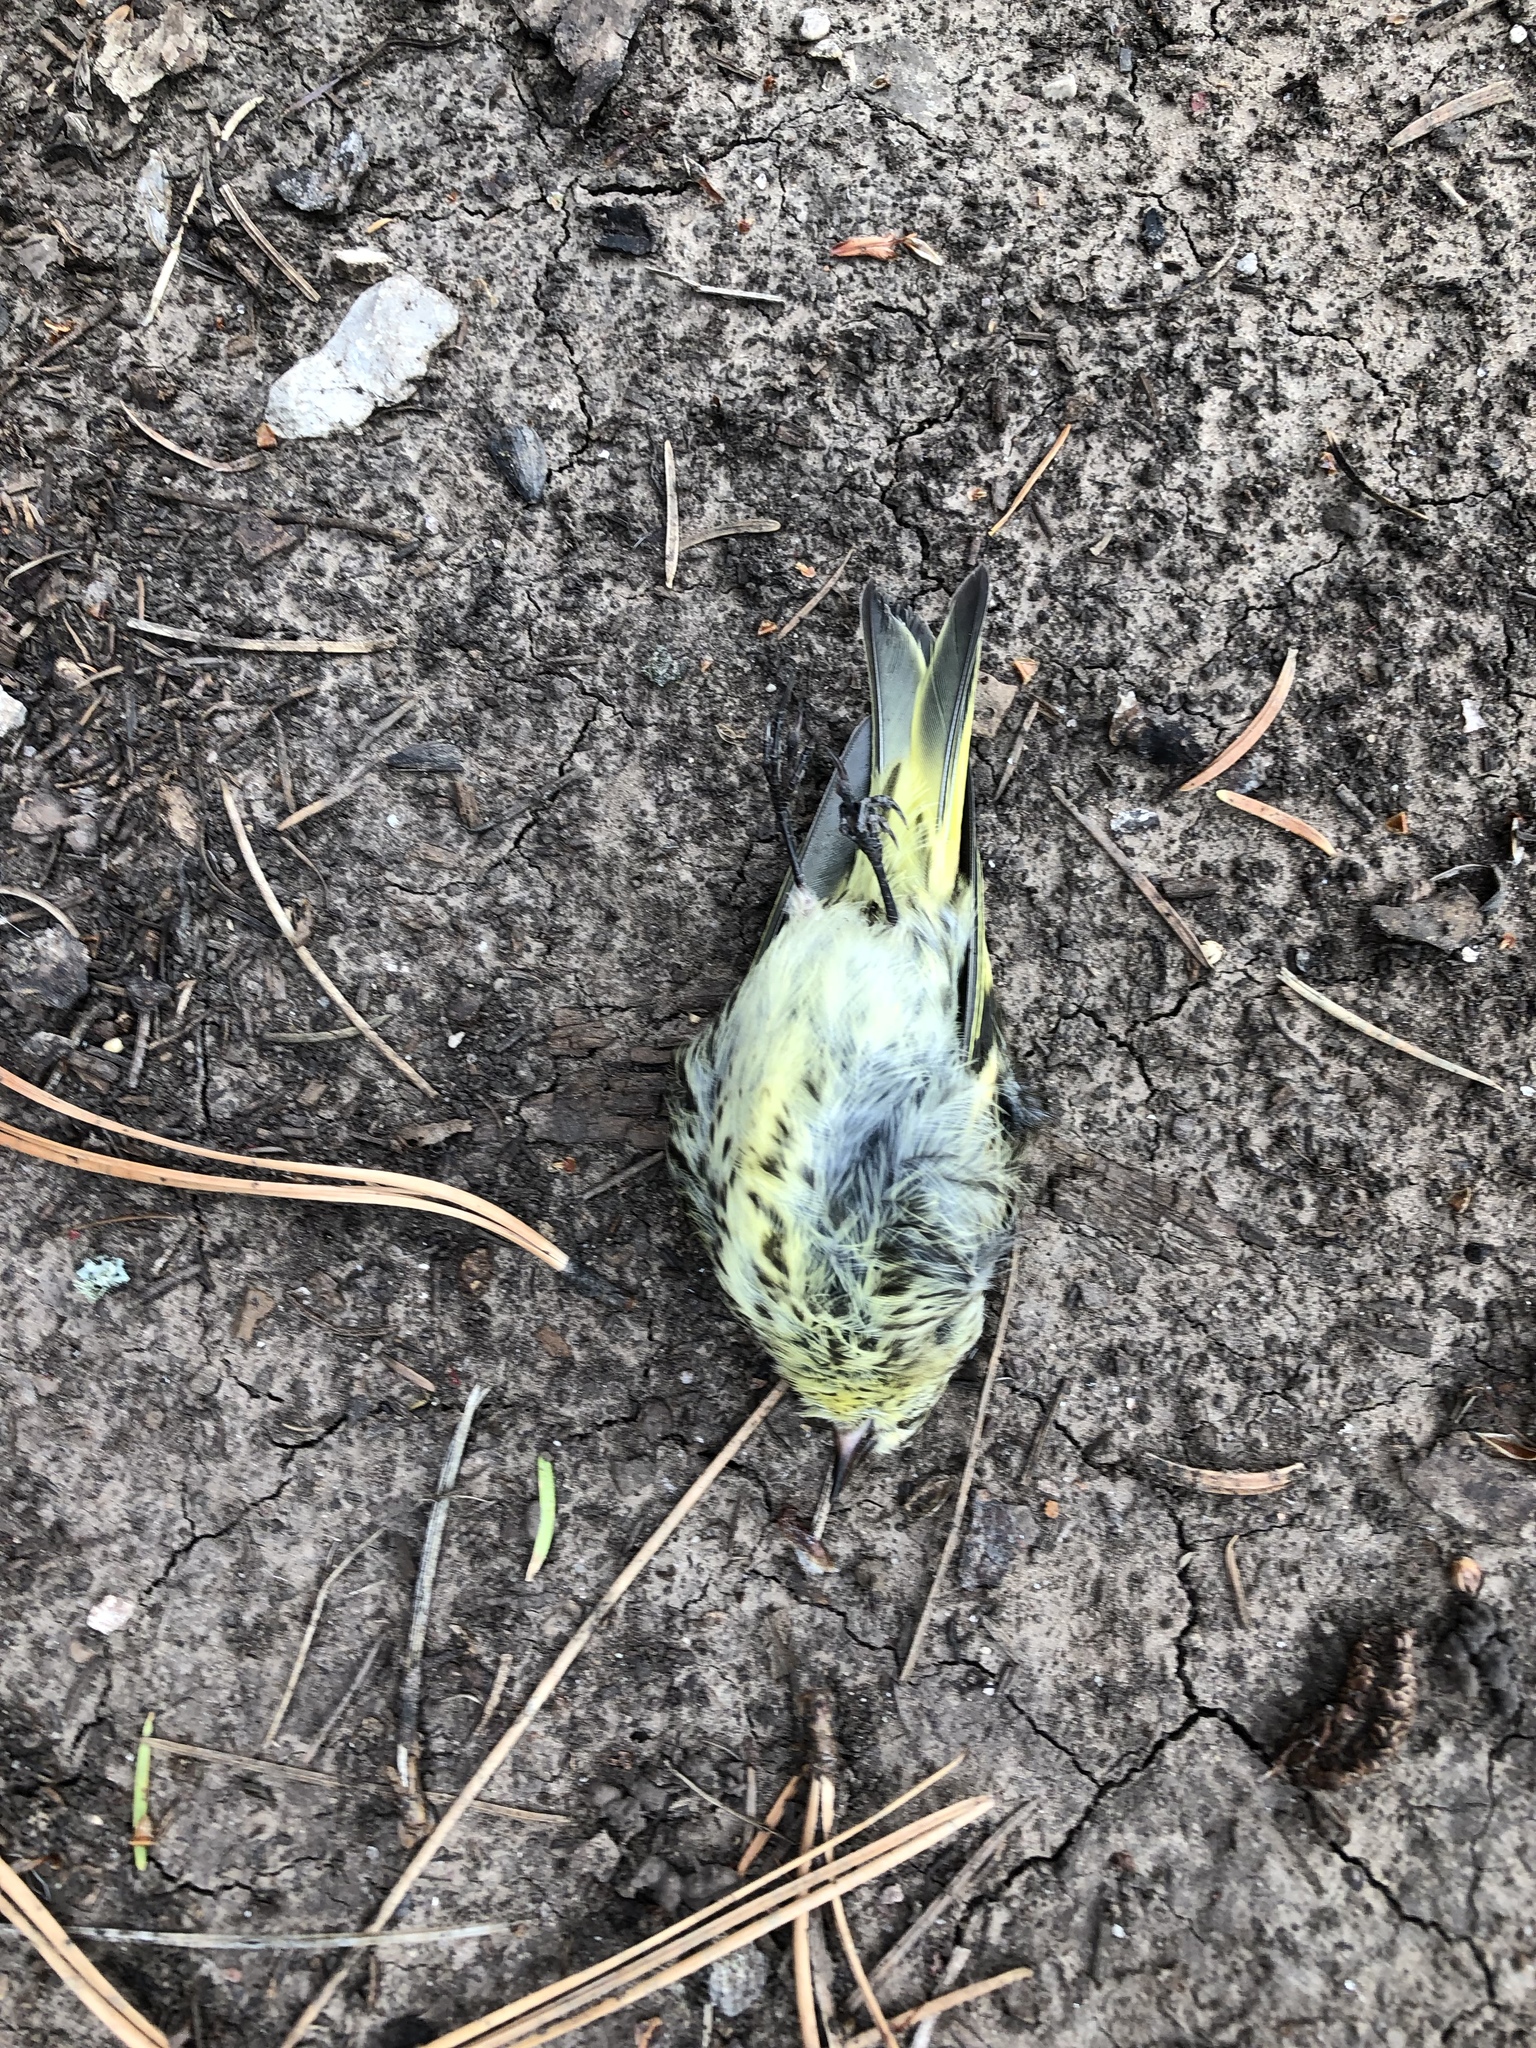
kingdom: Animalia
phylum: Chordata
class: Aves
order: Passeriformes
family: Fringillidae
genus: Spinus
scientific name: Spinus pinus
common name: Pine siskin
